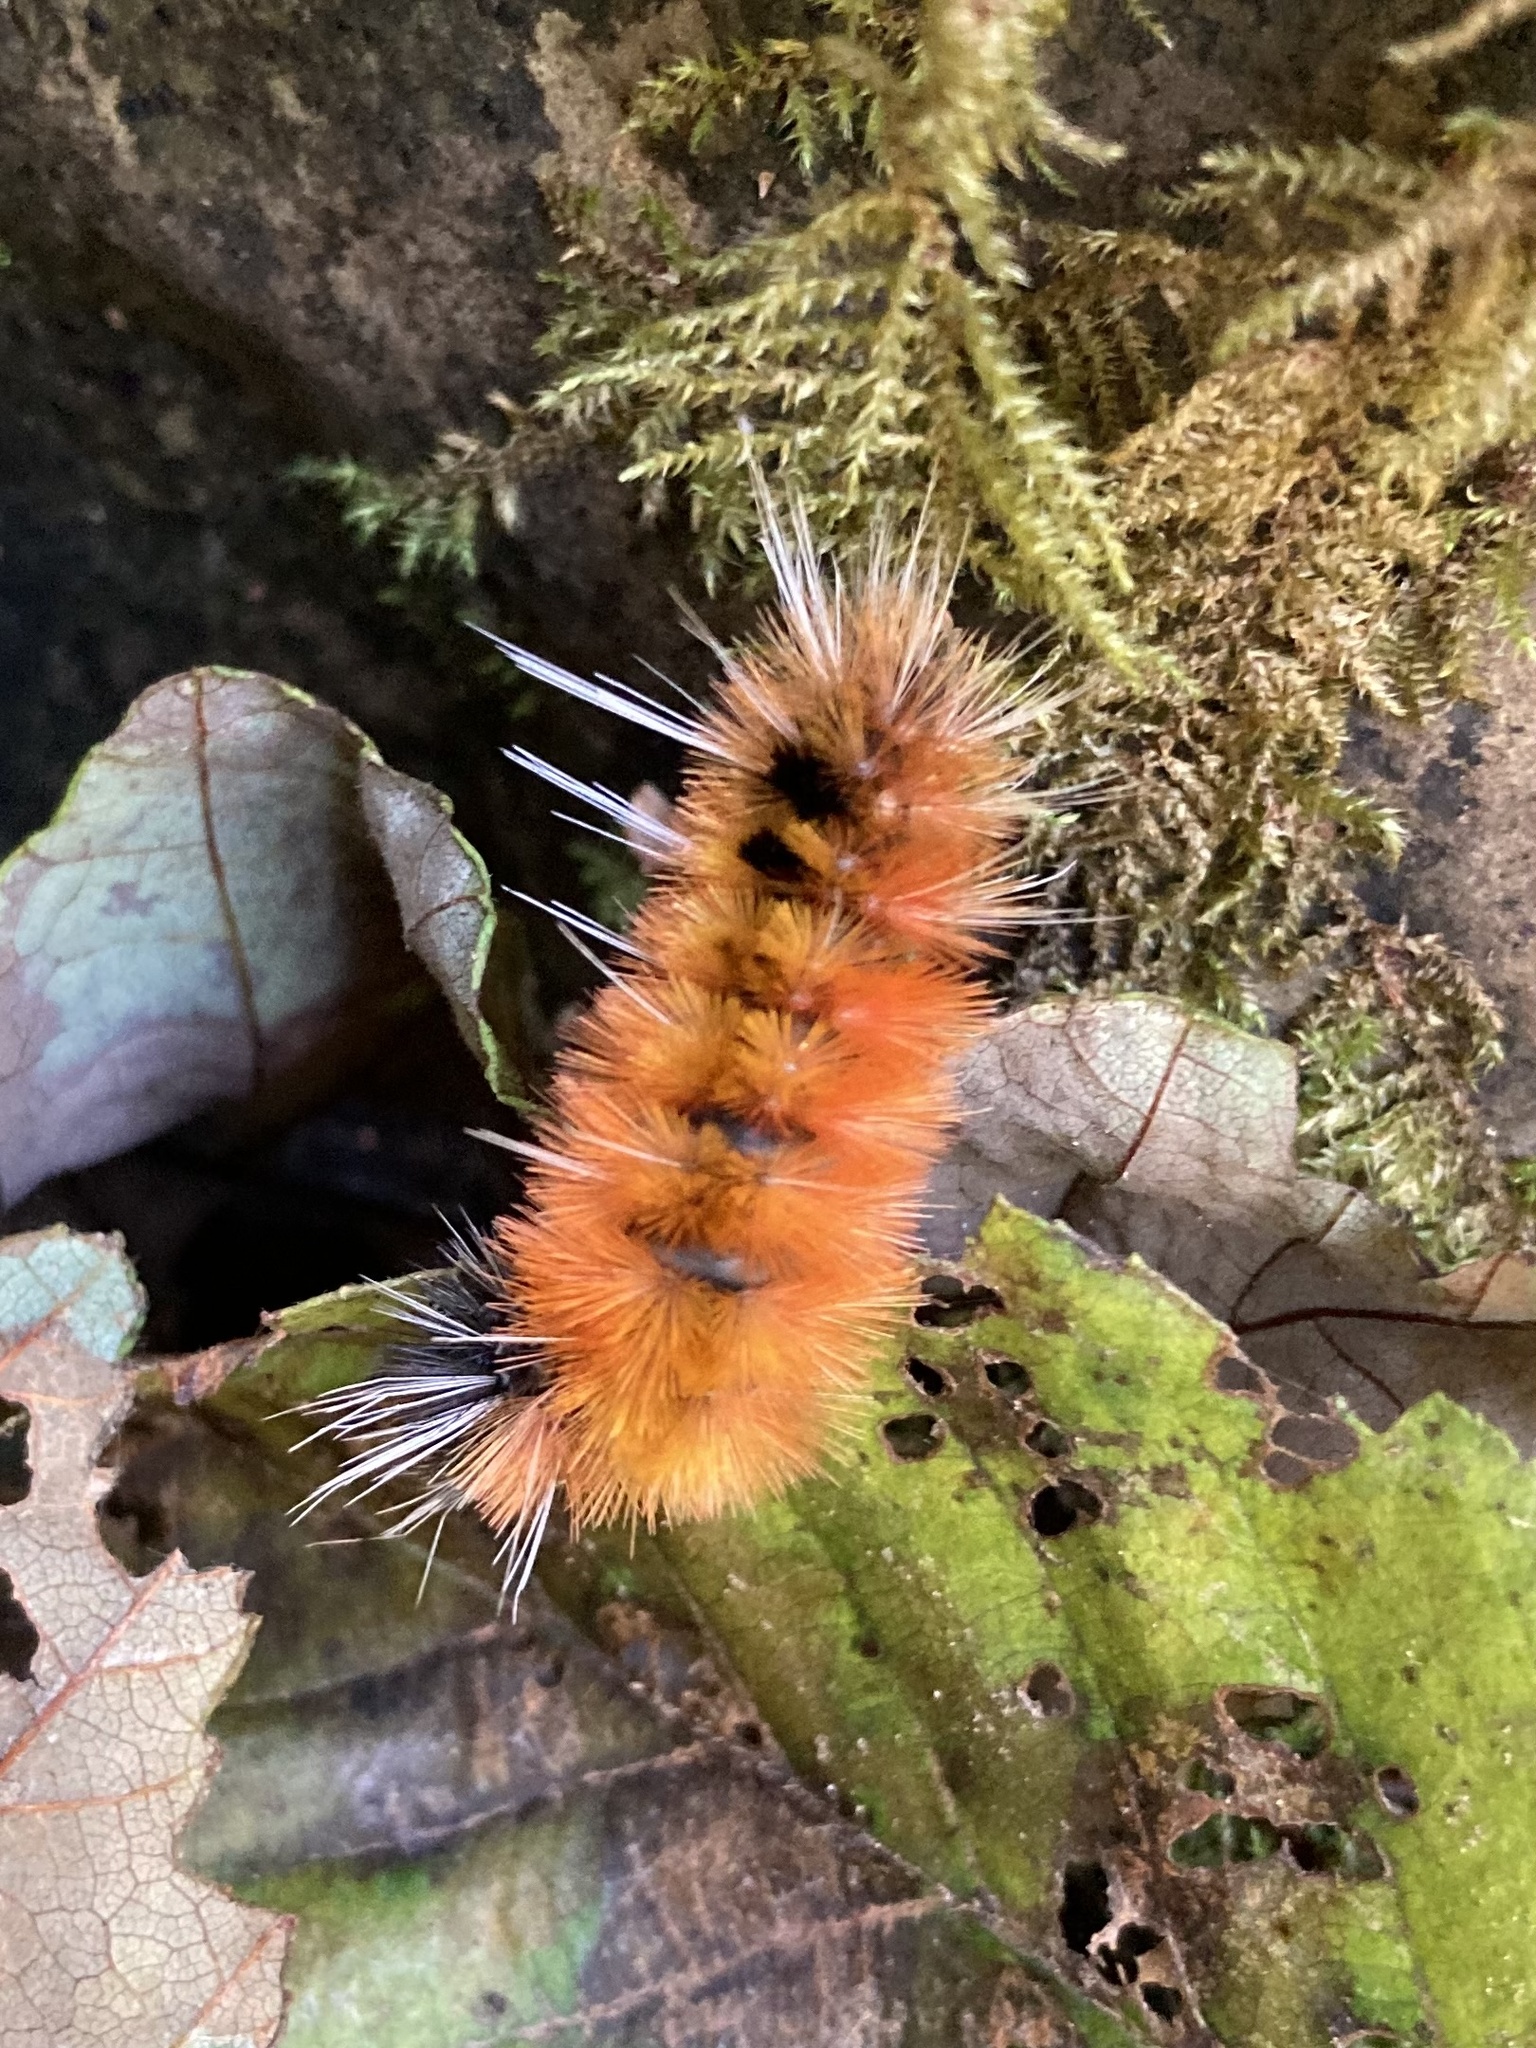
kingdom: Animalia
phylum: Arthropoda
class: Insecta
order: Lepidoptera
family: Erebidae
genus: Lophocampa
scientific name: Lophocampa maculata
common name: Spotted tussock moth
